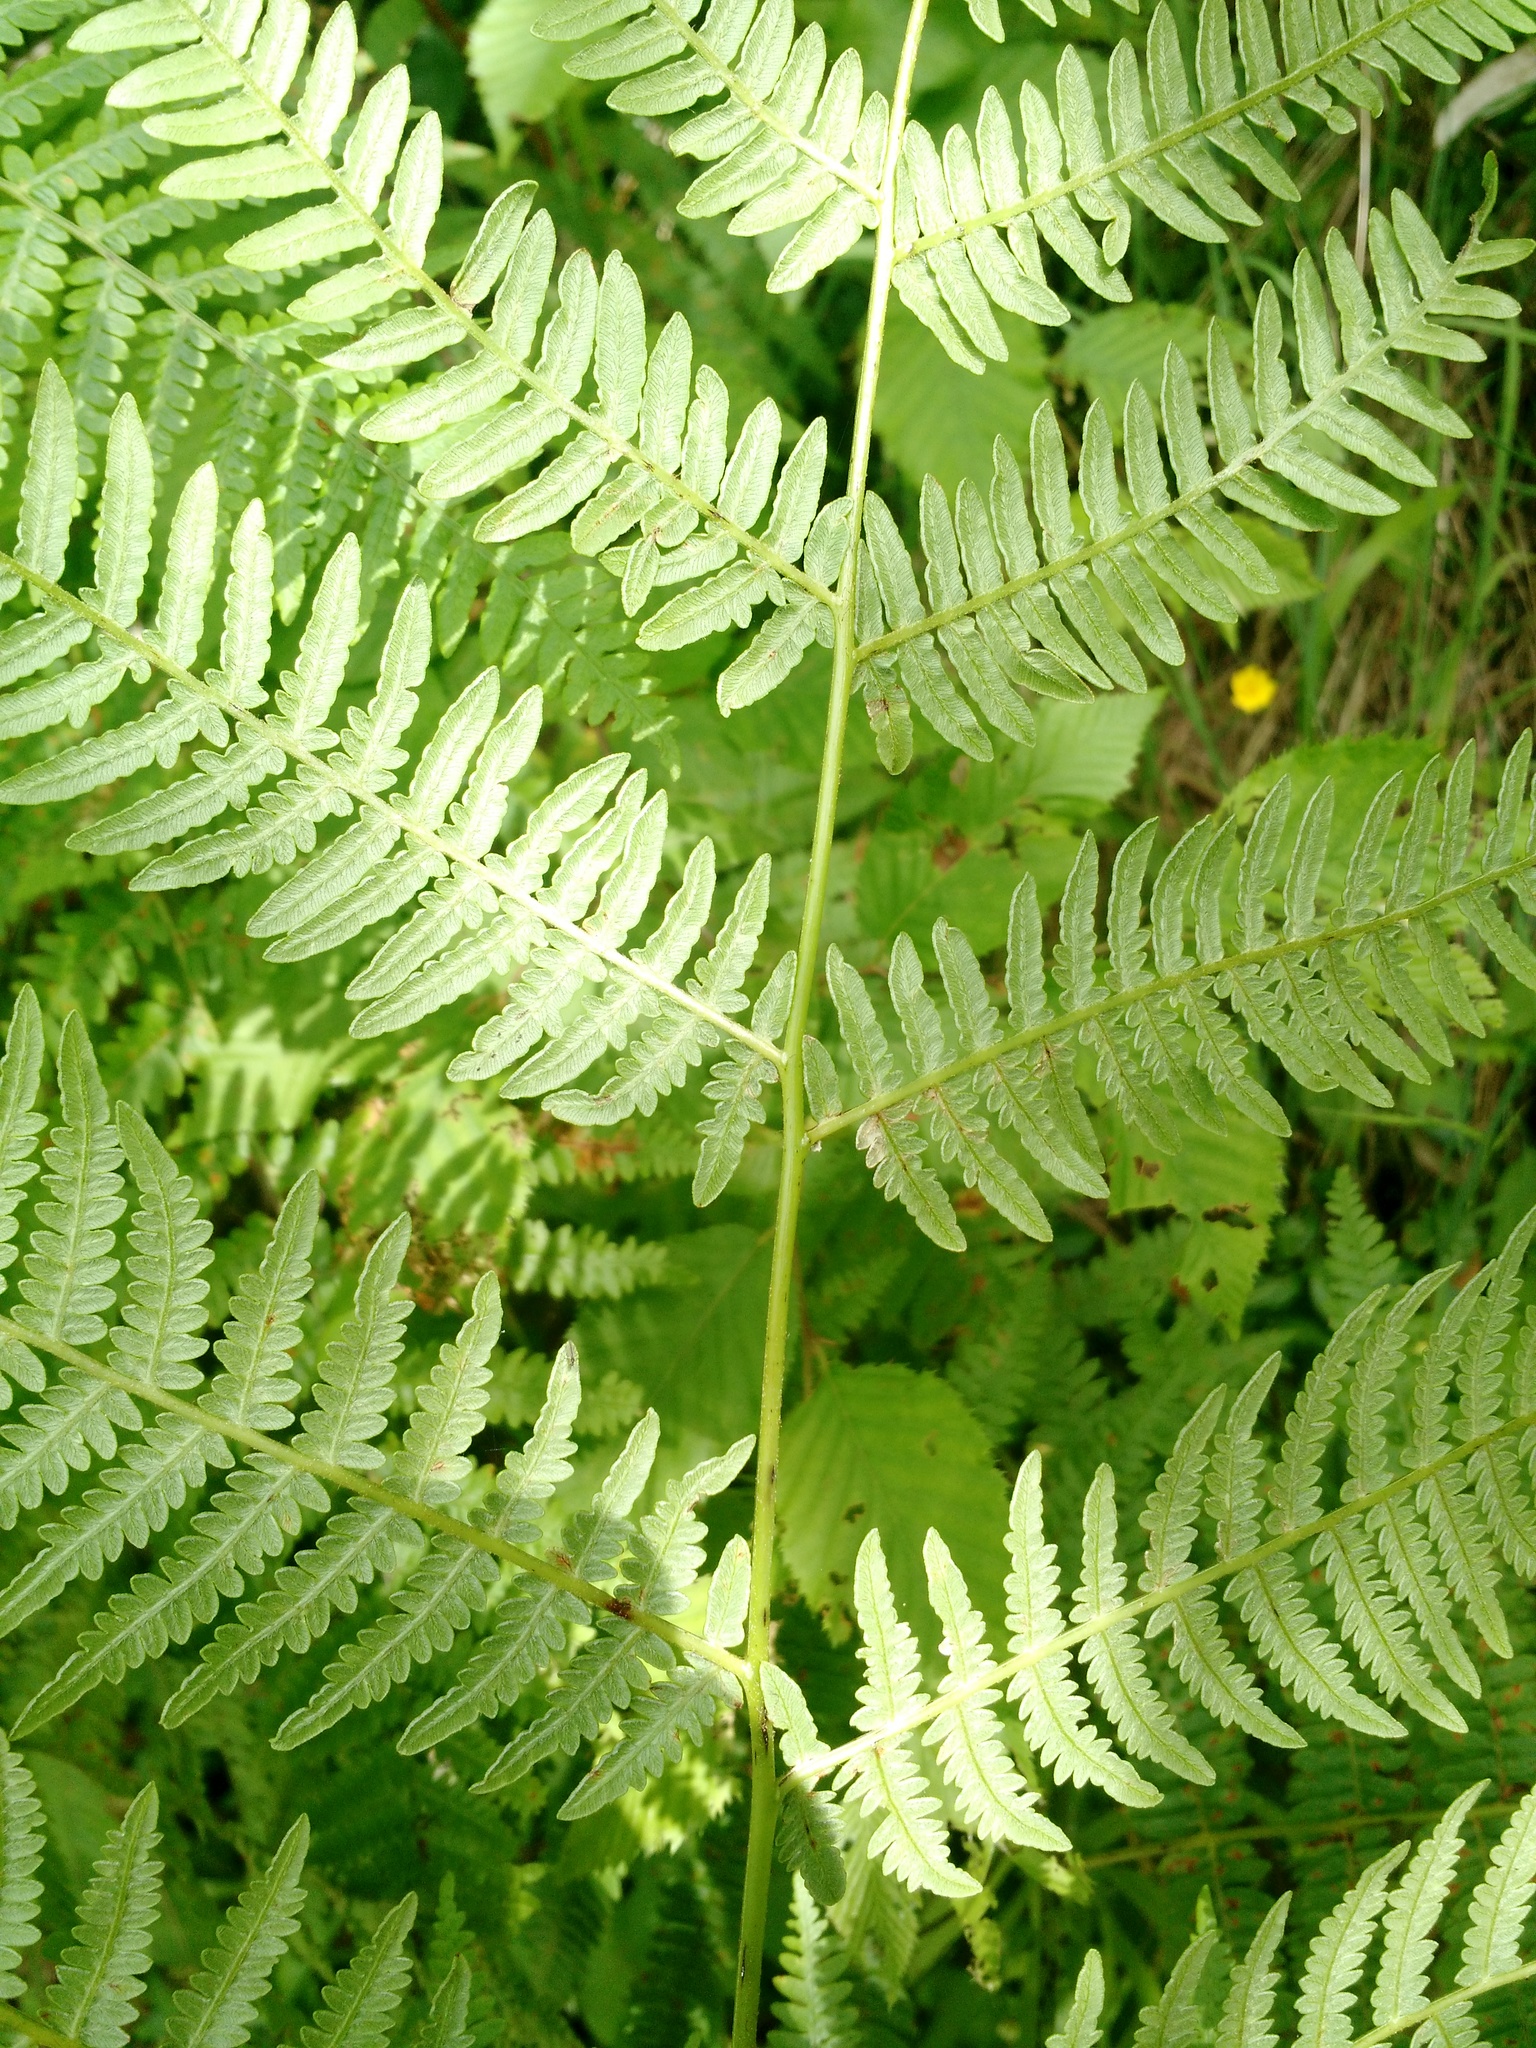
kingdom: Plantae
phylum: Tracheophyta
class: Polypodiopsida
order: Polypodiales
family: Dennstaedtiaceae
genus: Pteridium
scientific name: Pteridium aquilinum
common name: Bracken
